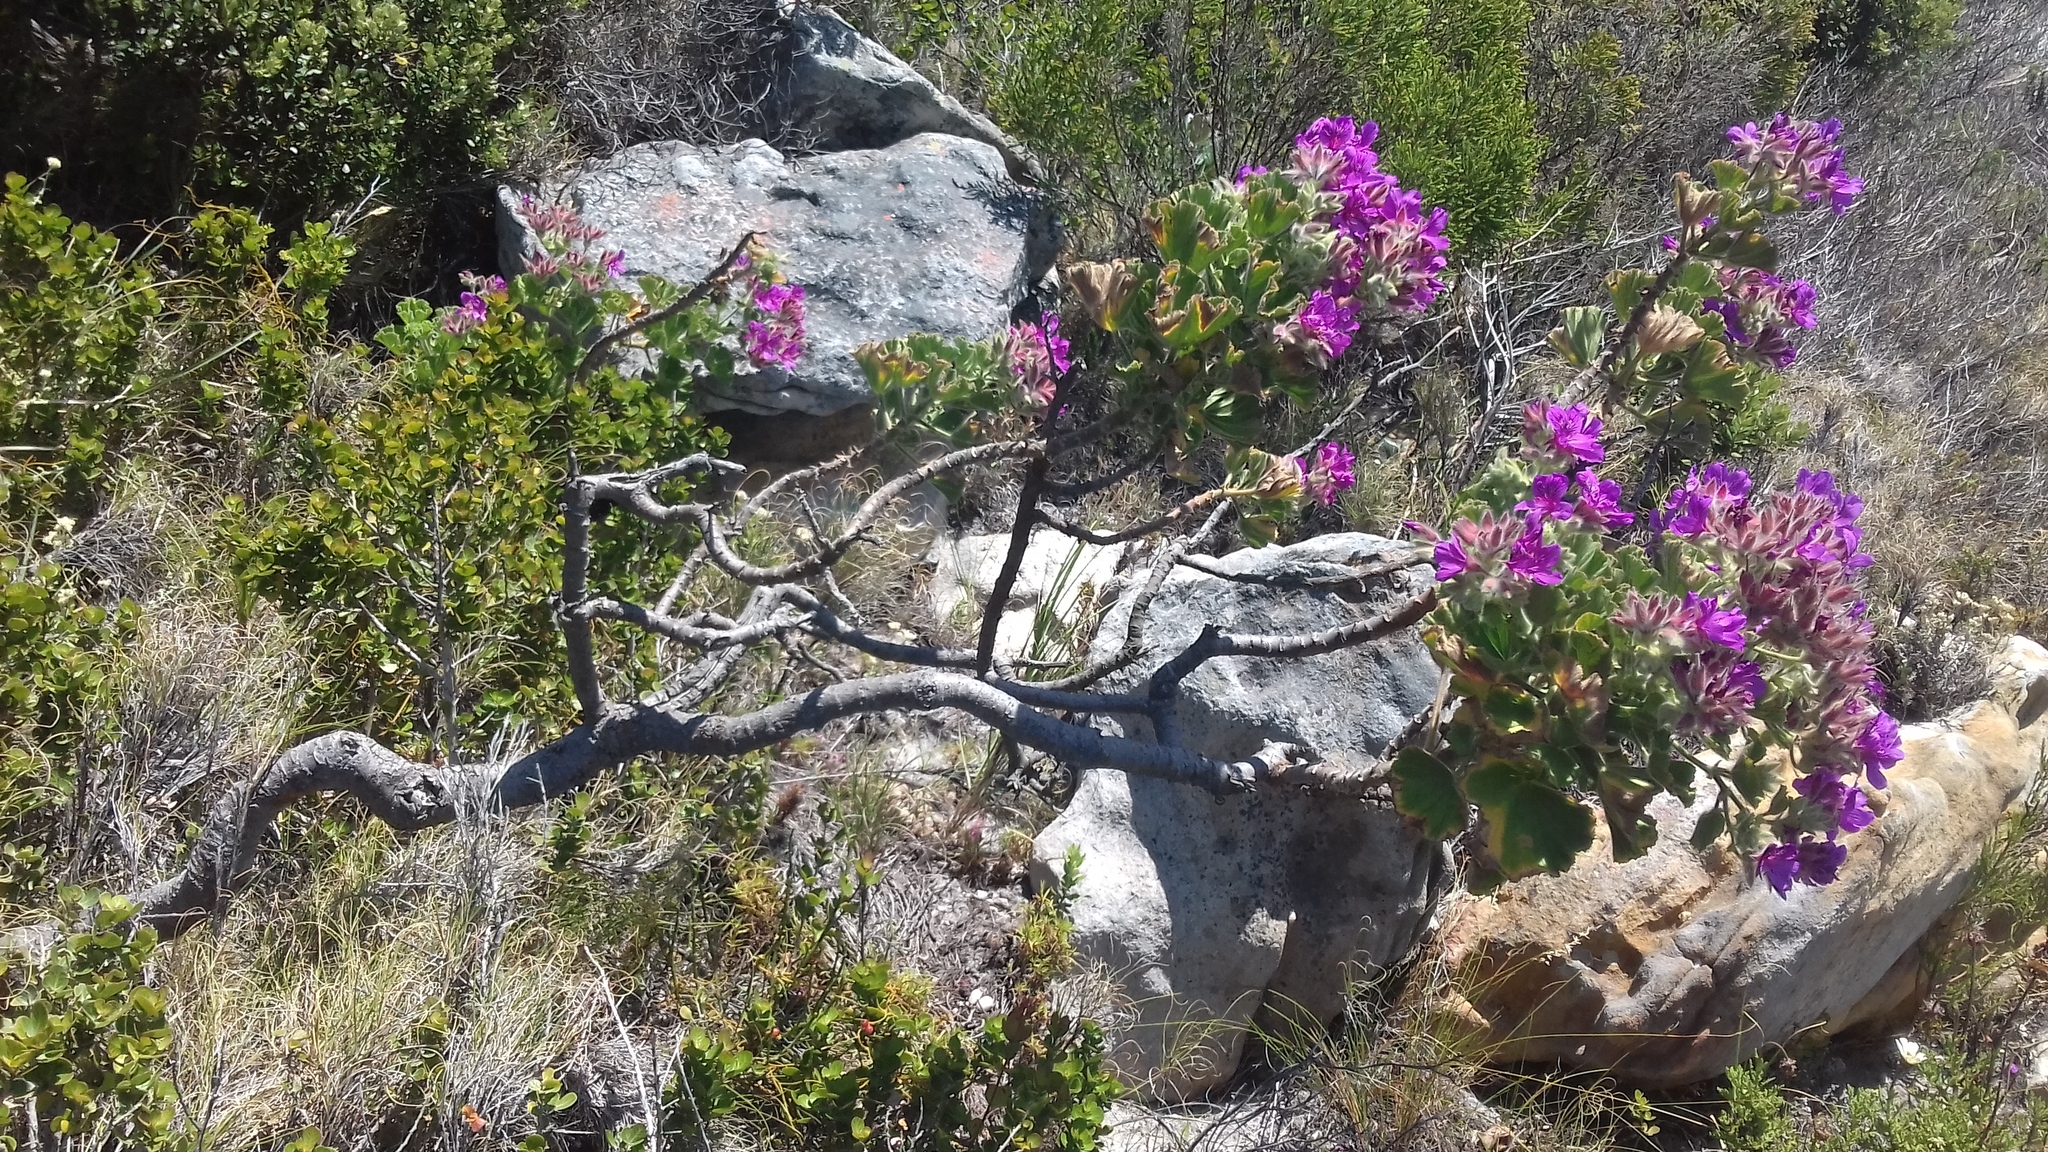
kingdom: Plantae
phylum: Tracheophyta
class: Magnoliopsida
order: Geraniales
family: Geraniaceae
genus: Pelargonium
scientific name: Pelargonium cucullatum
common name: Tree pelargonium
